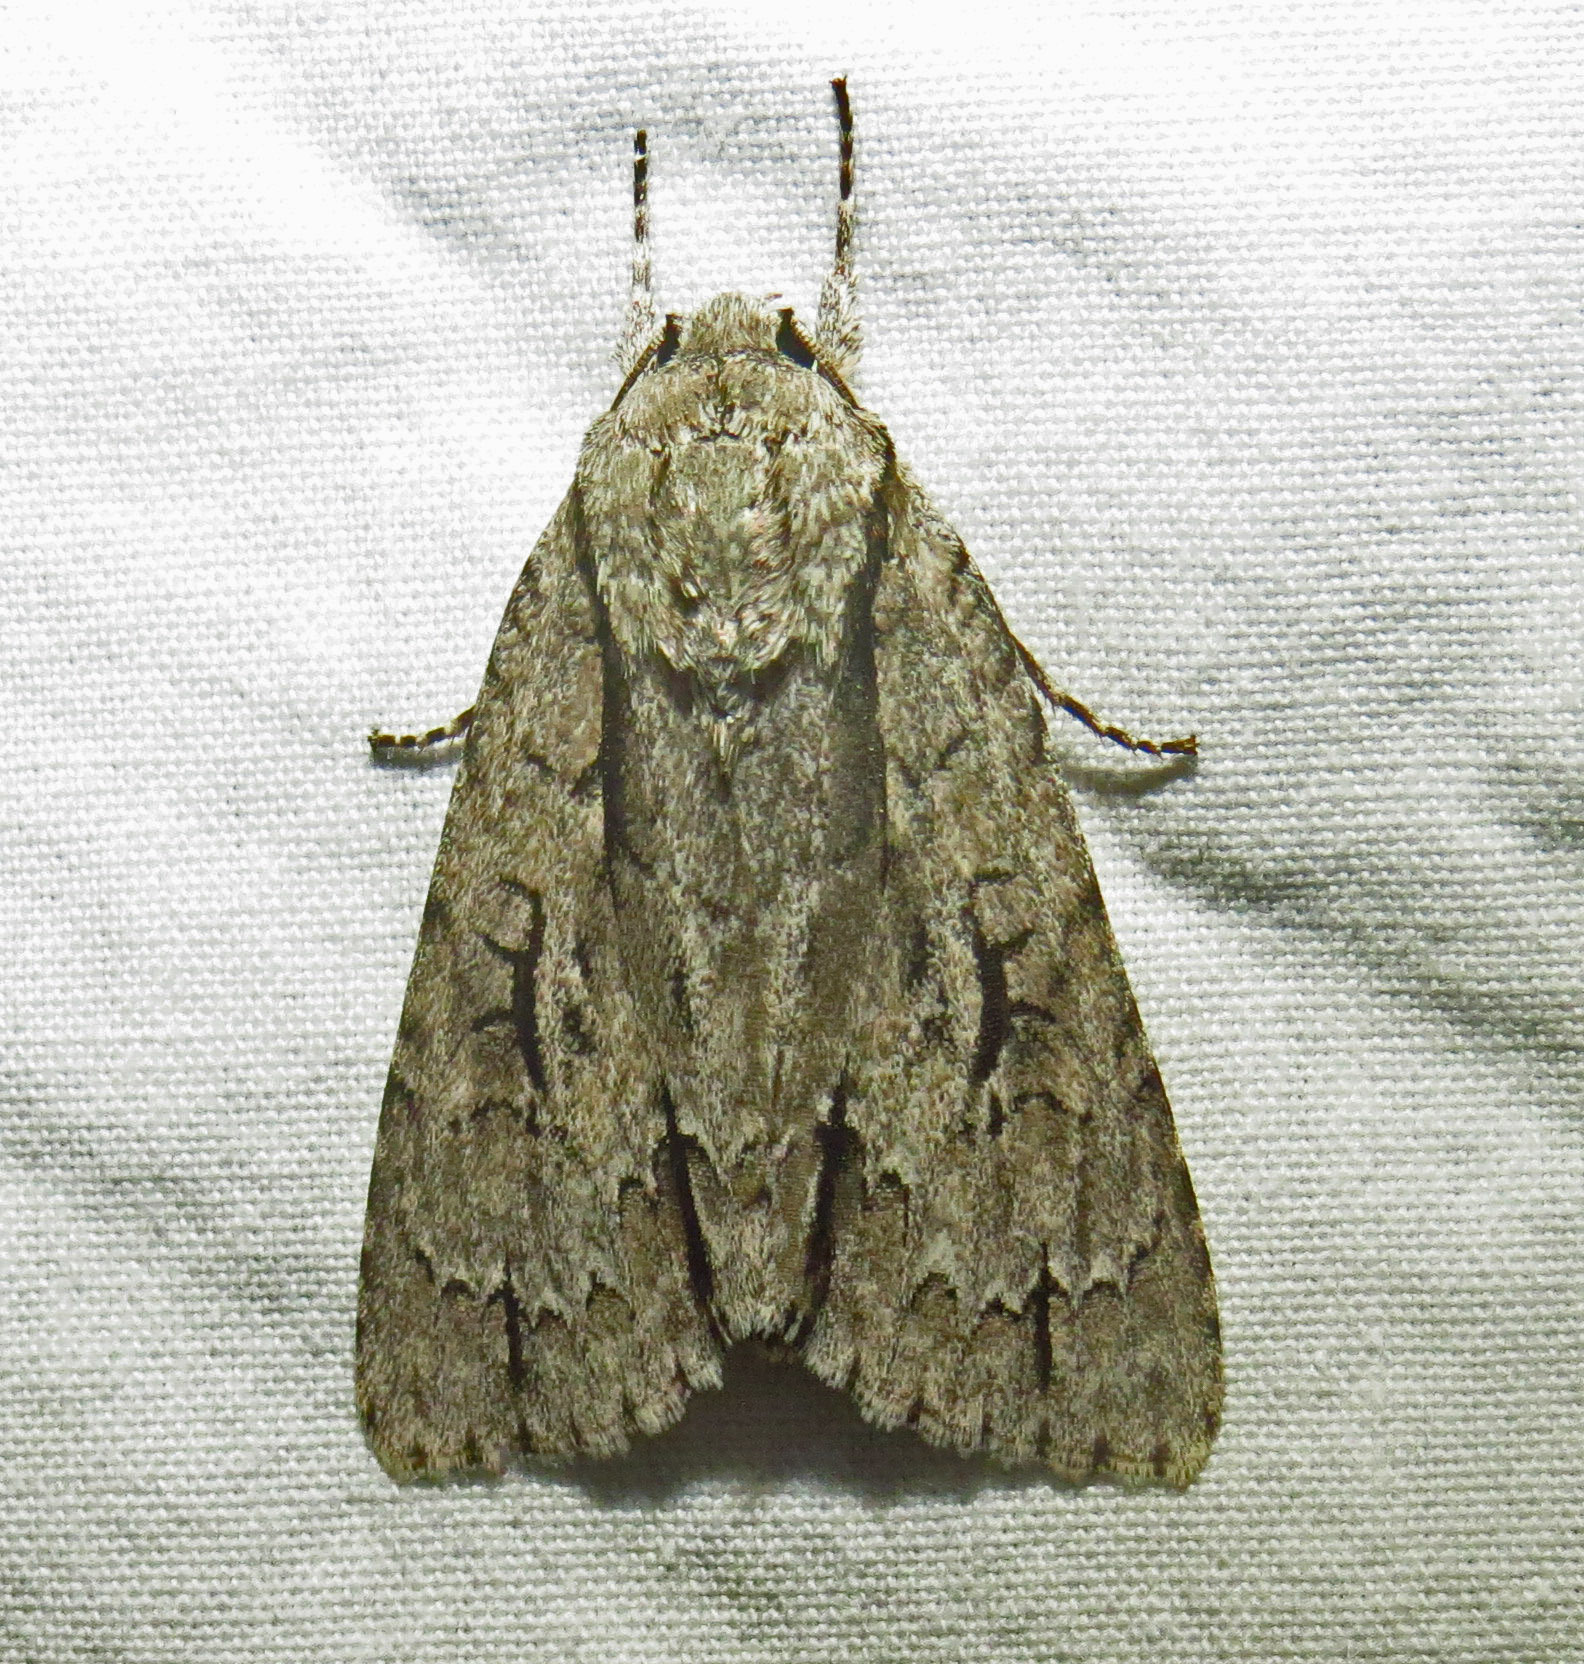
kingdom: Animalia
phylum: Arthropoda
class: Insecta
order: Lepidoptera
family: Noctuidae
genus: Acronicta
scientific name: Acronicta hasta
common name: Cherry dagger
